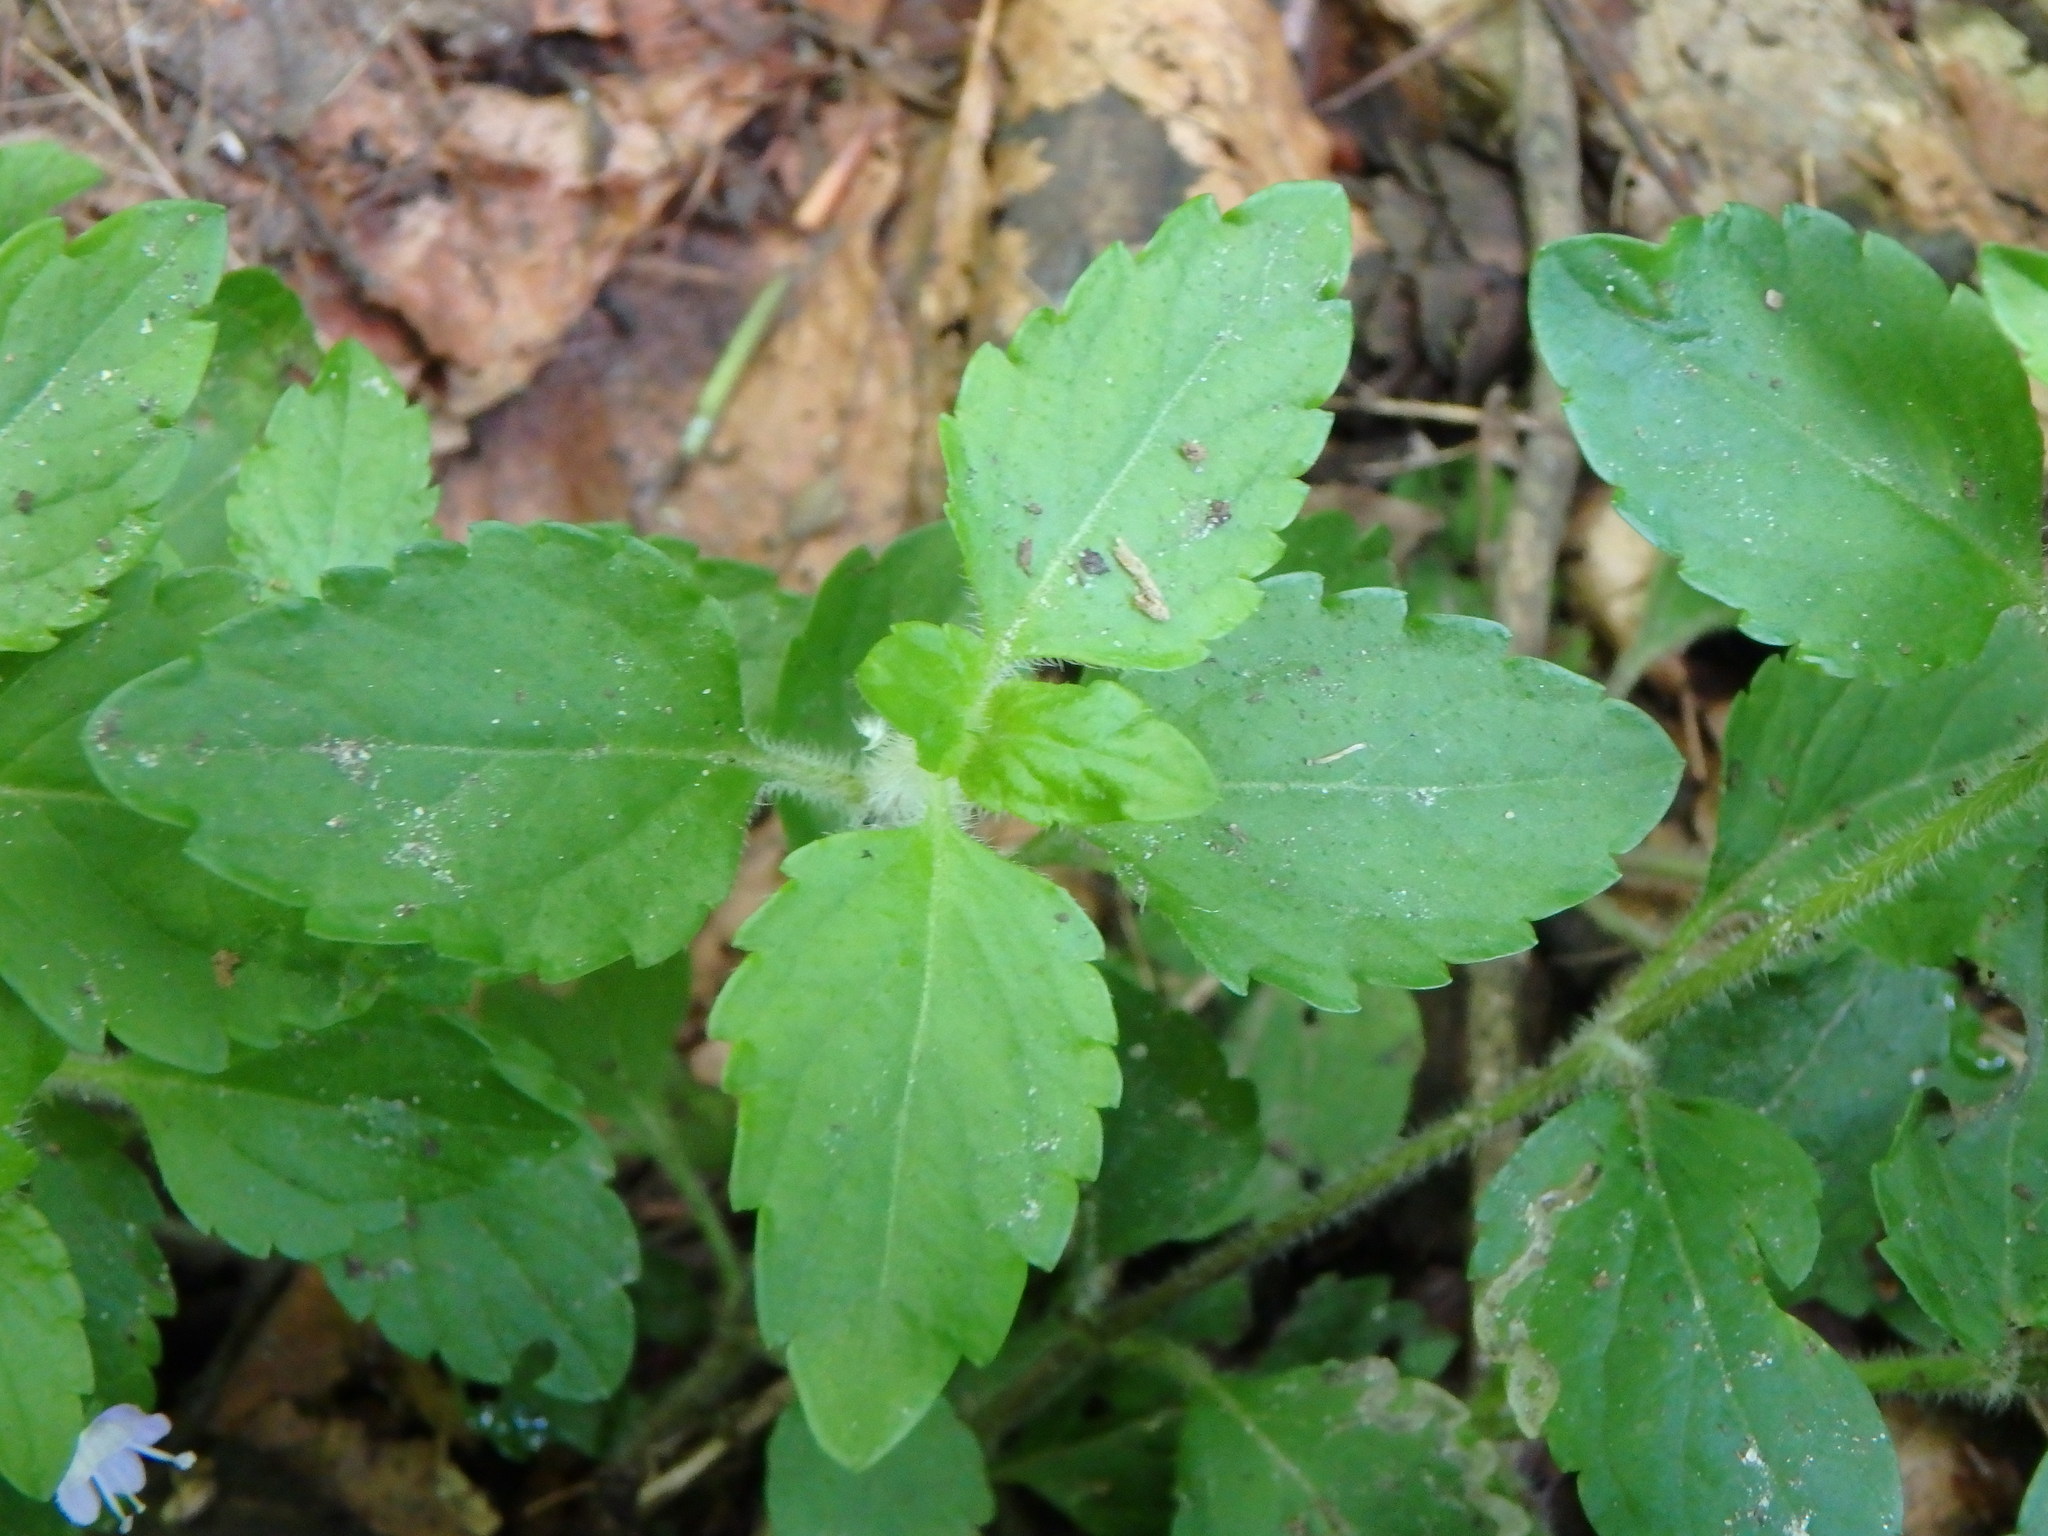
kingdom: Plantae
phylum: Tracheophyta
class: Magnoliopsida
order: Lamiales
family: Plantaginaceae
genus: Veronica
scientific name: Veronica montana
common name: Wood speedwell
